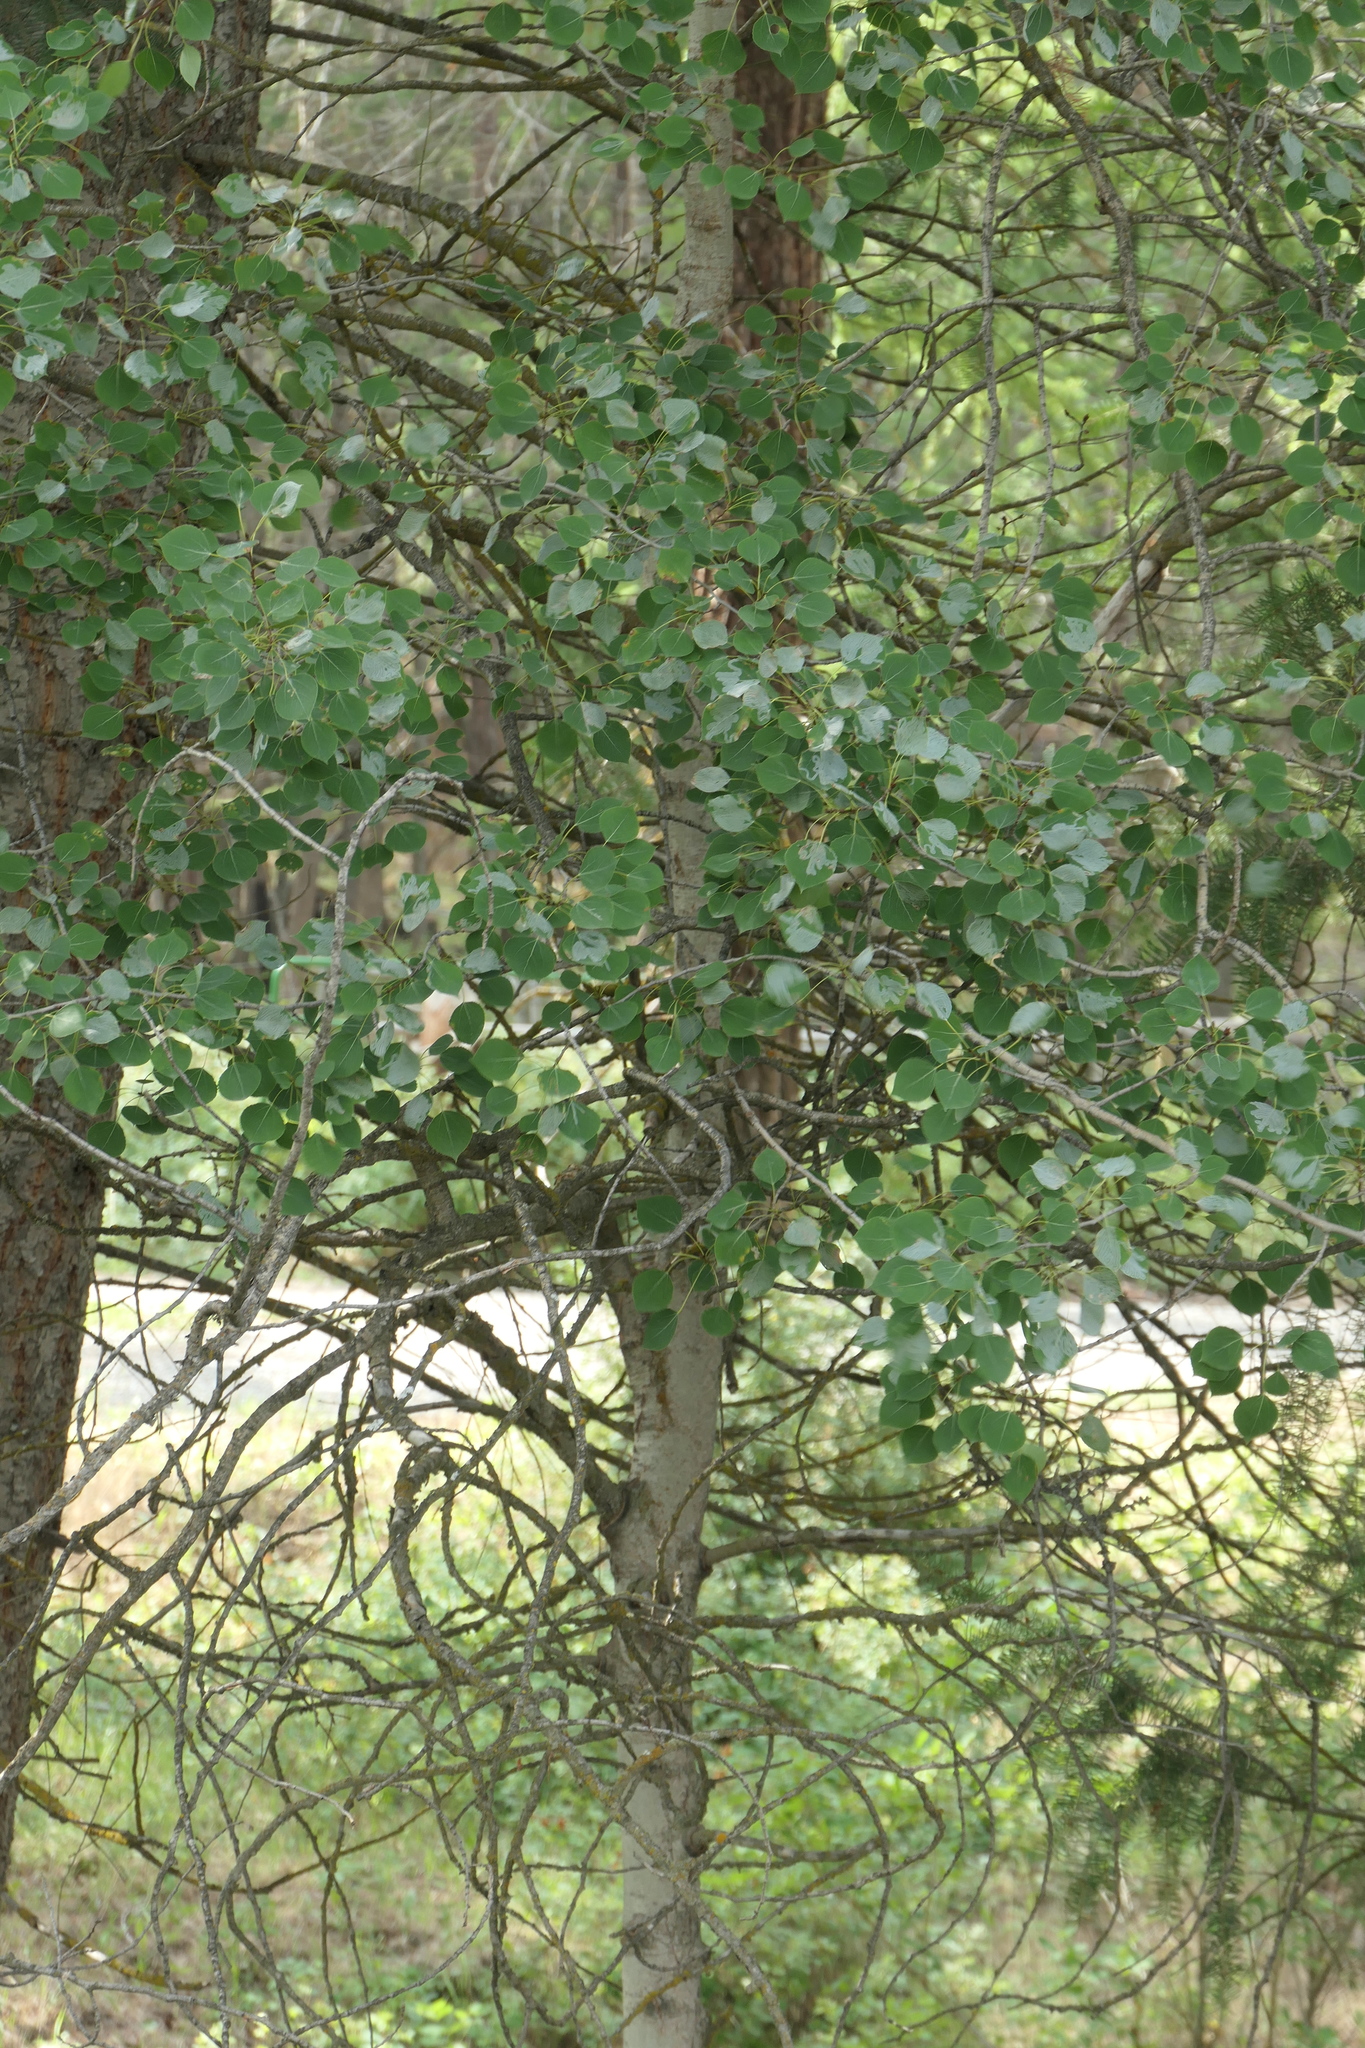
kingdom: Plantae
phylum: Tracheophyta
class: Magnoliopsida
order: Malpighiales
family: Salicaceae
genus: Populus
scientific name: Populus tremuloides
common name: Quaking aspen
